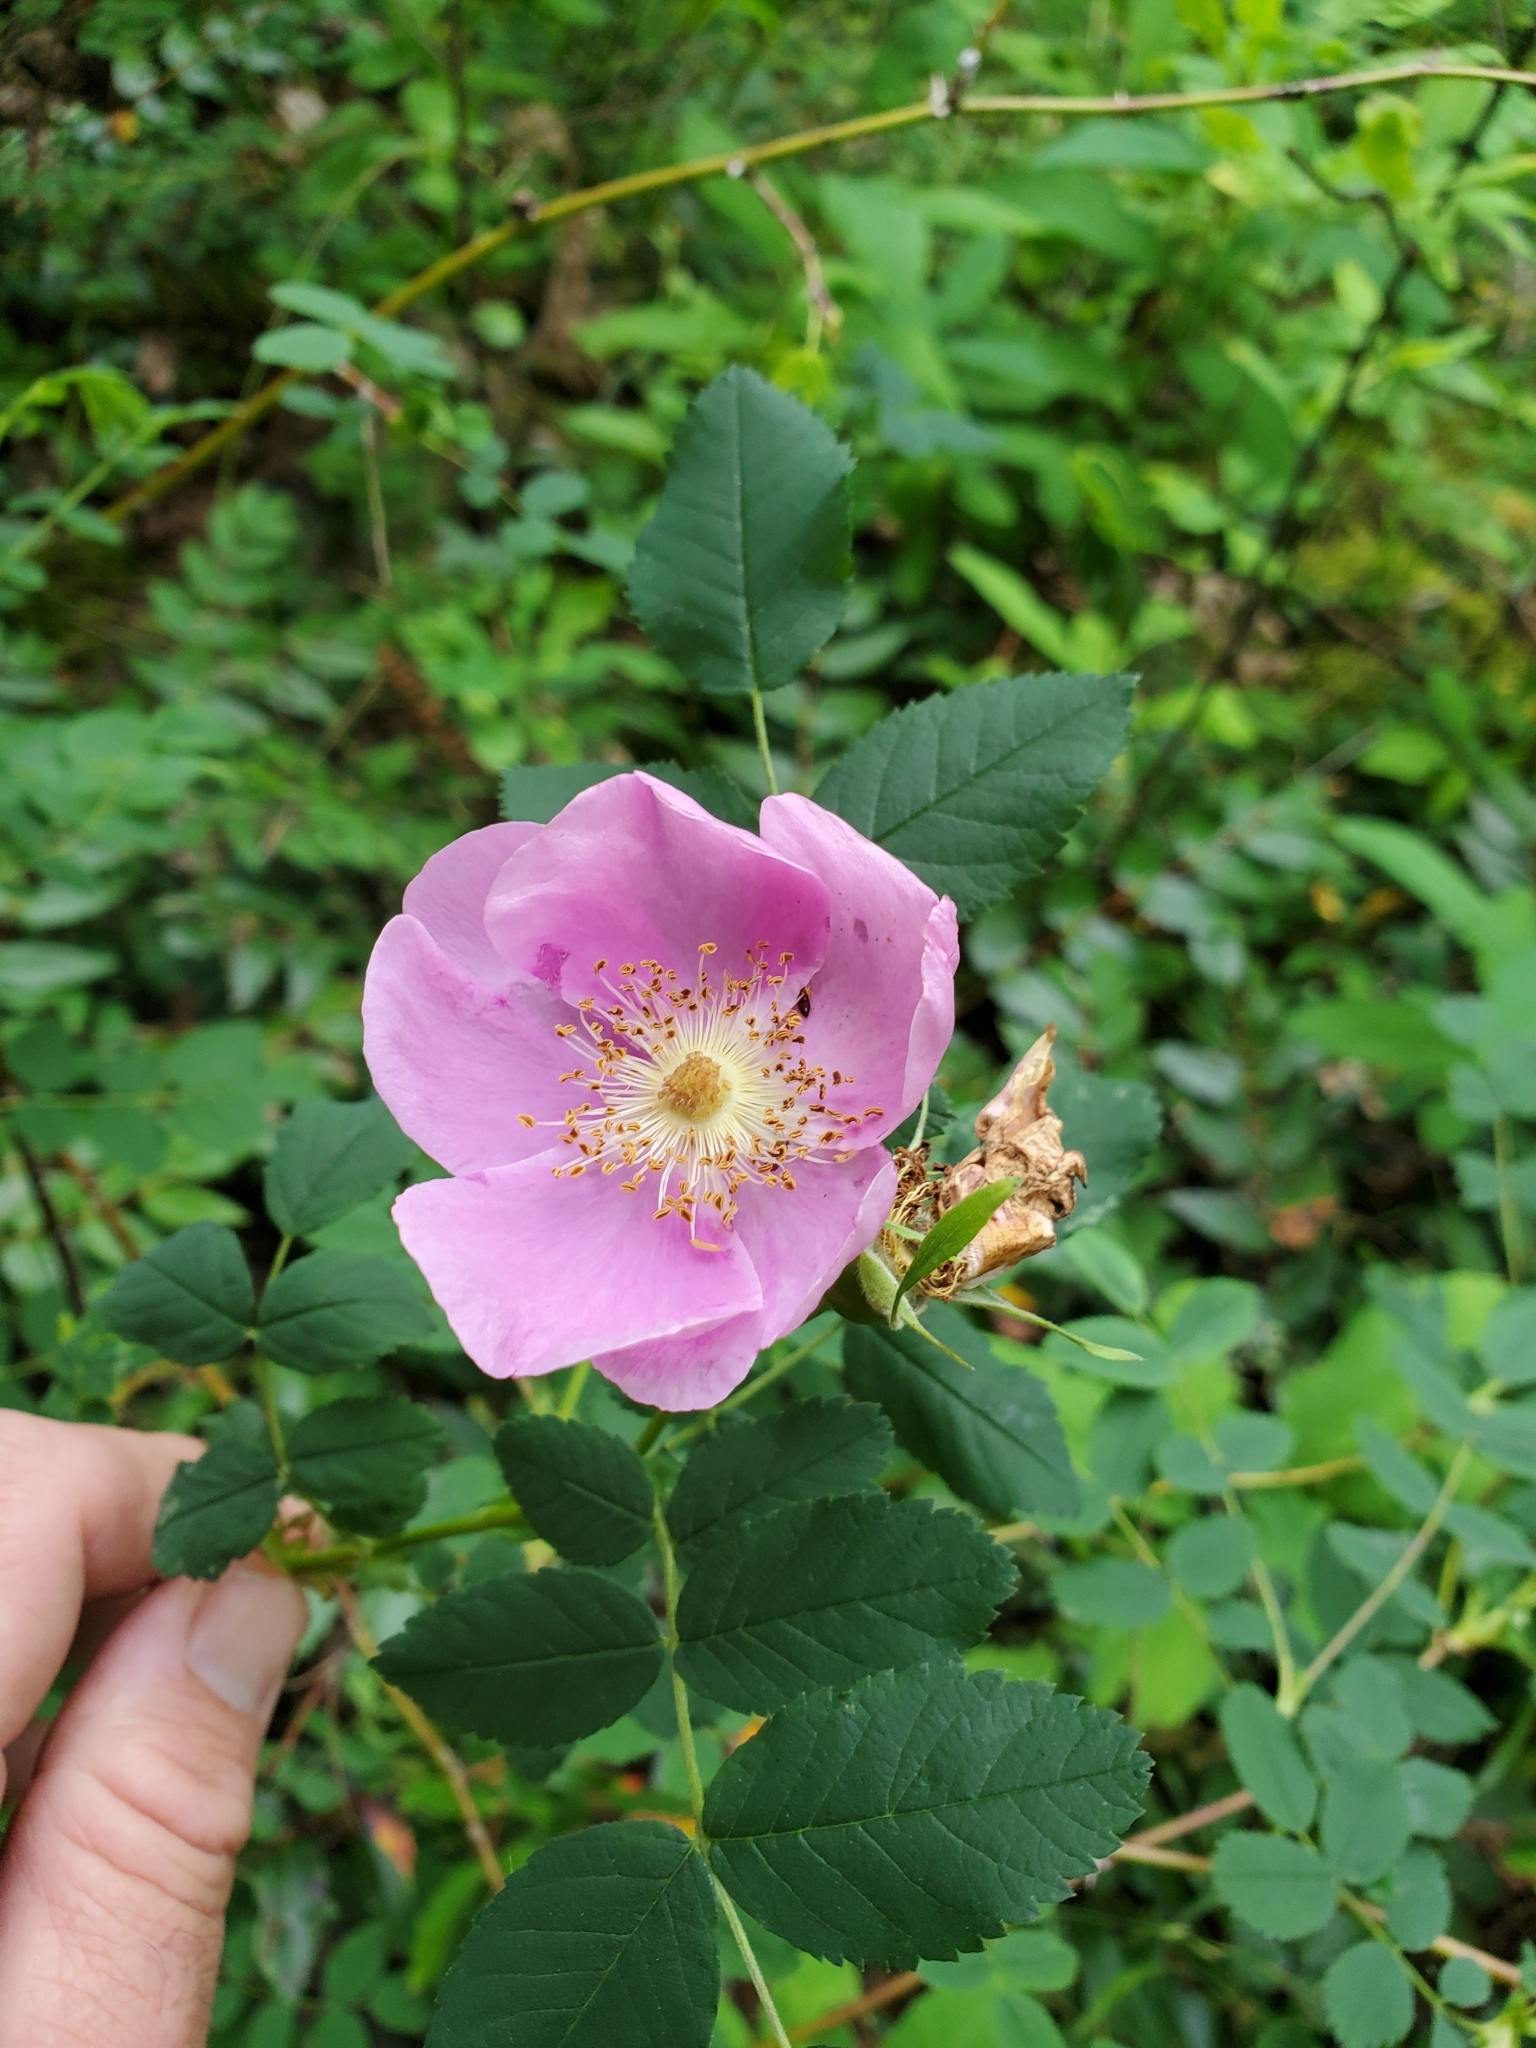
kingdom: Plantae
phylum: Tracheophyta
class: Magnoliopsida
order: Rosales
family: Rosaceae
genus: Rosa
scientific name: Rosa nutkana
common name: Nootka rose
